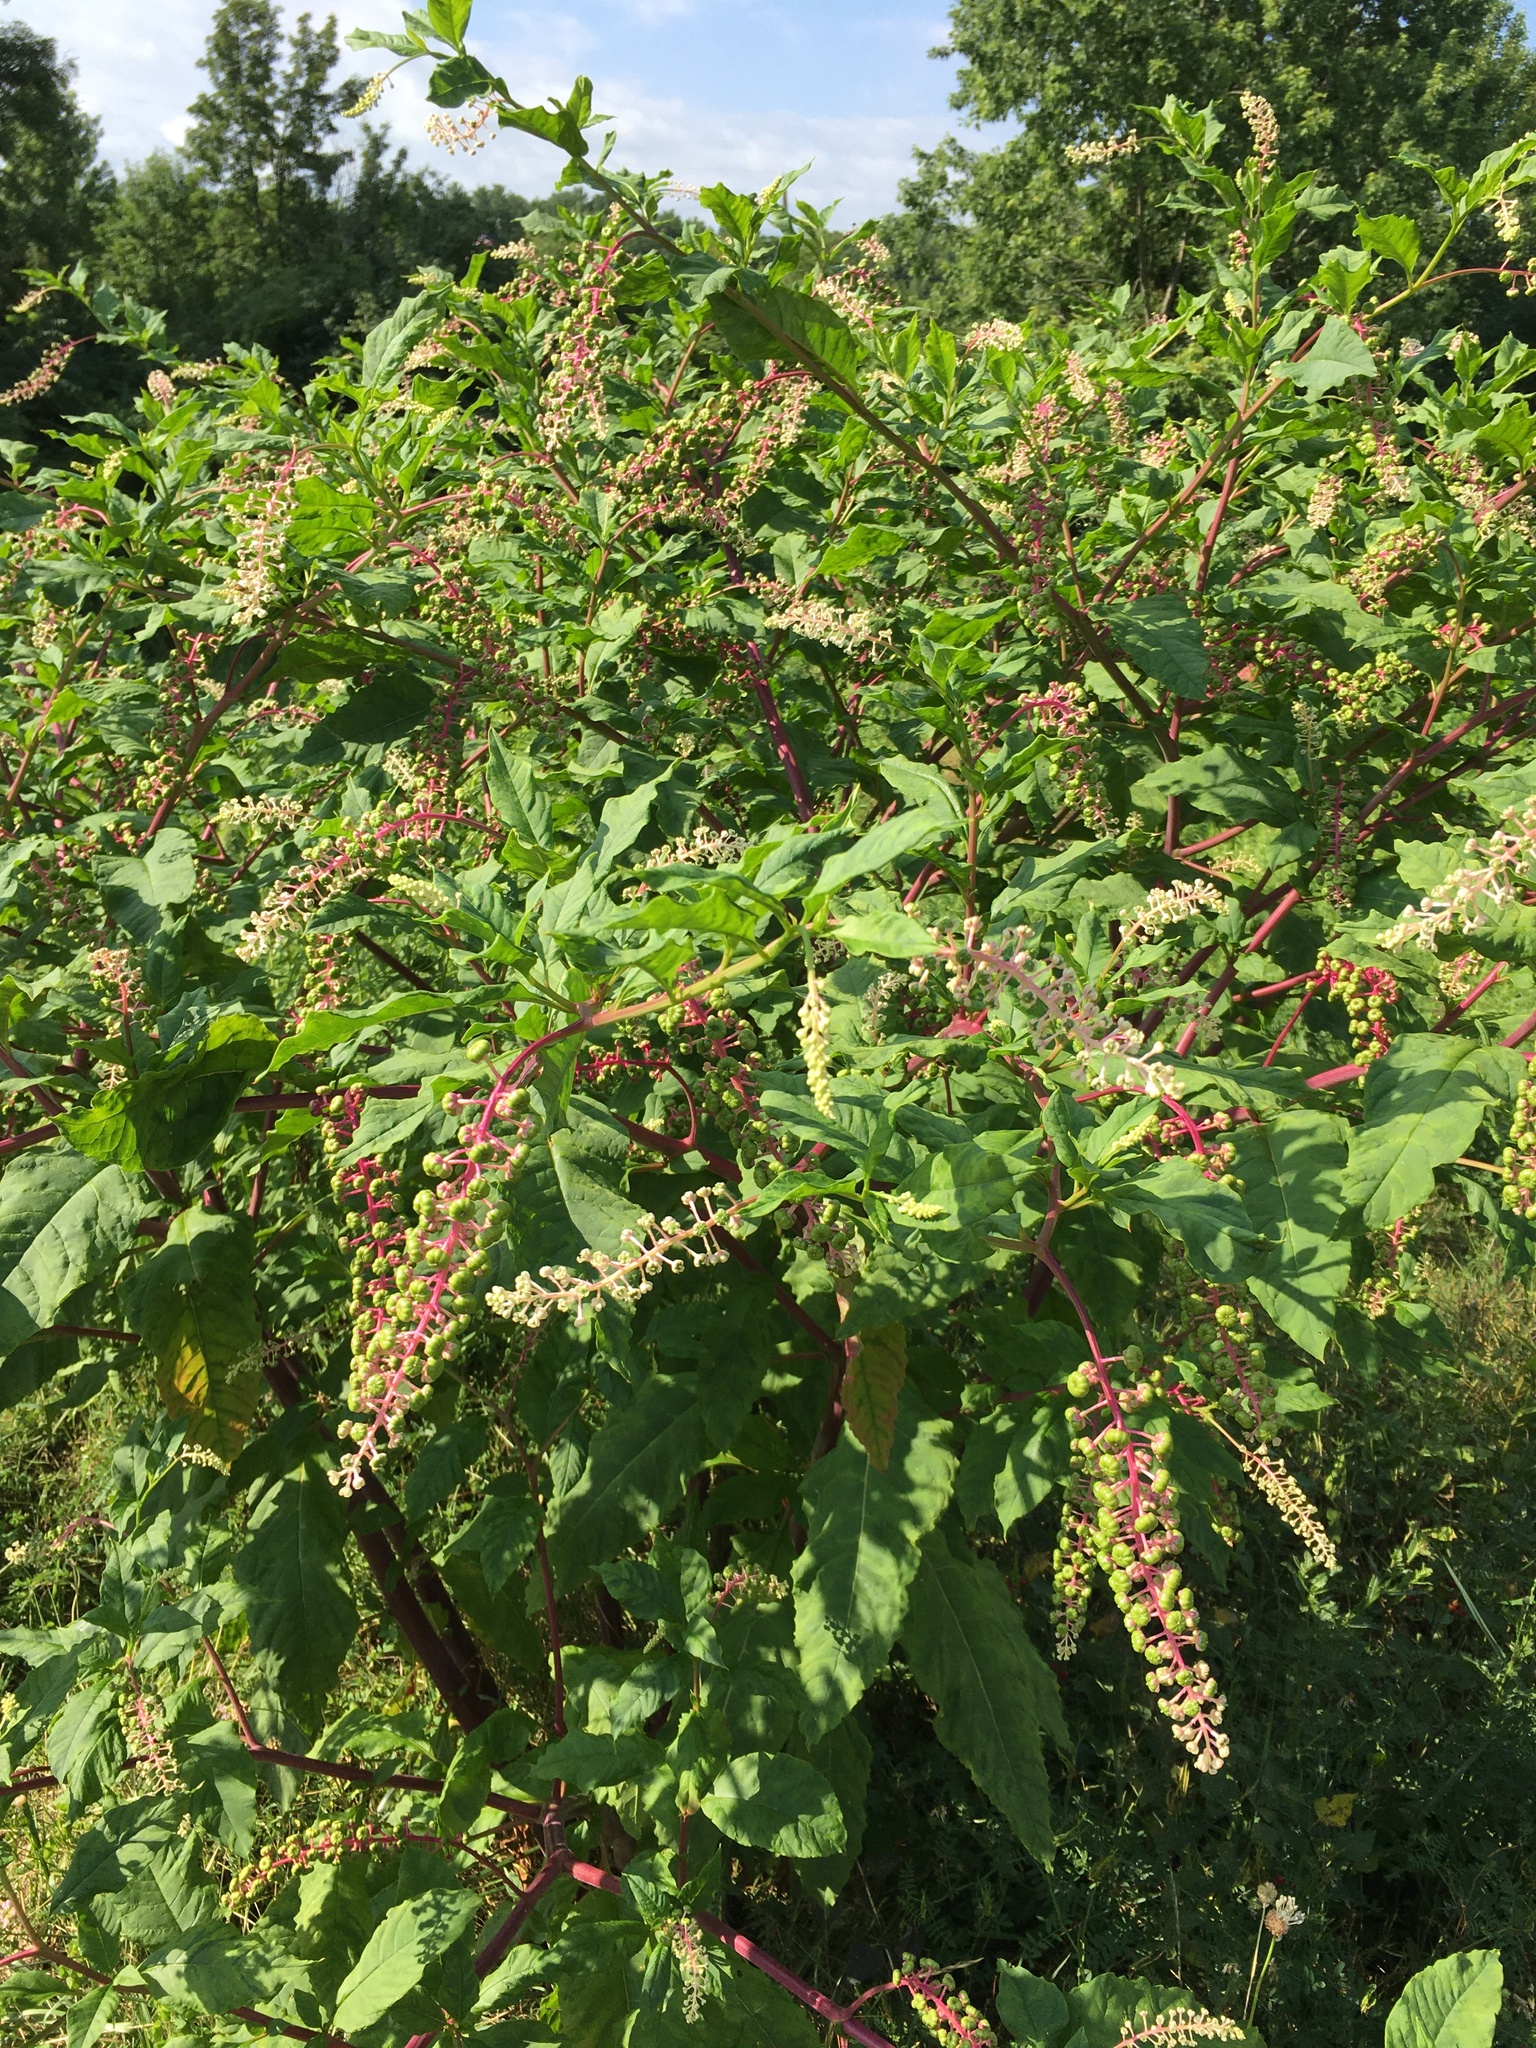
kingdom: Plantae
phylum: Tracheophyta
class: Magnoliopsida
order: Caryophyllales
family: Phytolaccaceae
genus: Phytolacca
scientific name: Phytolacca americana
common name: American pokeweed
